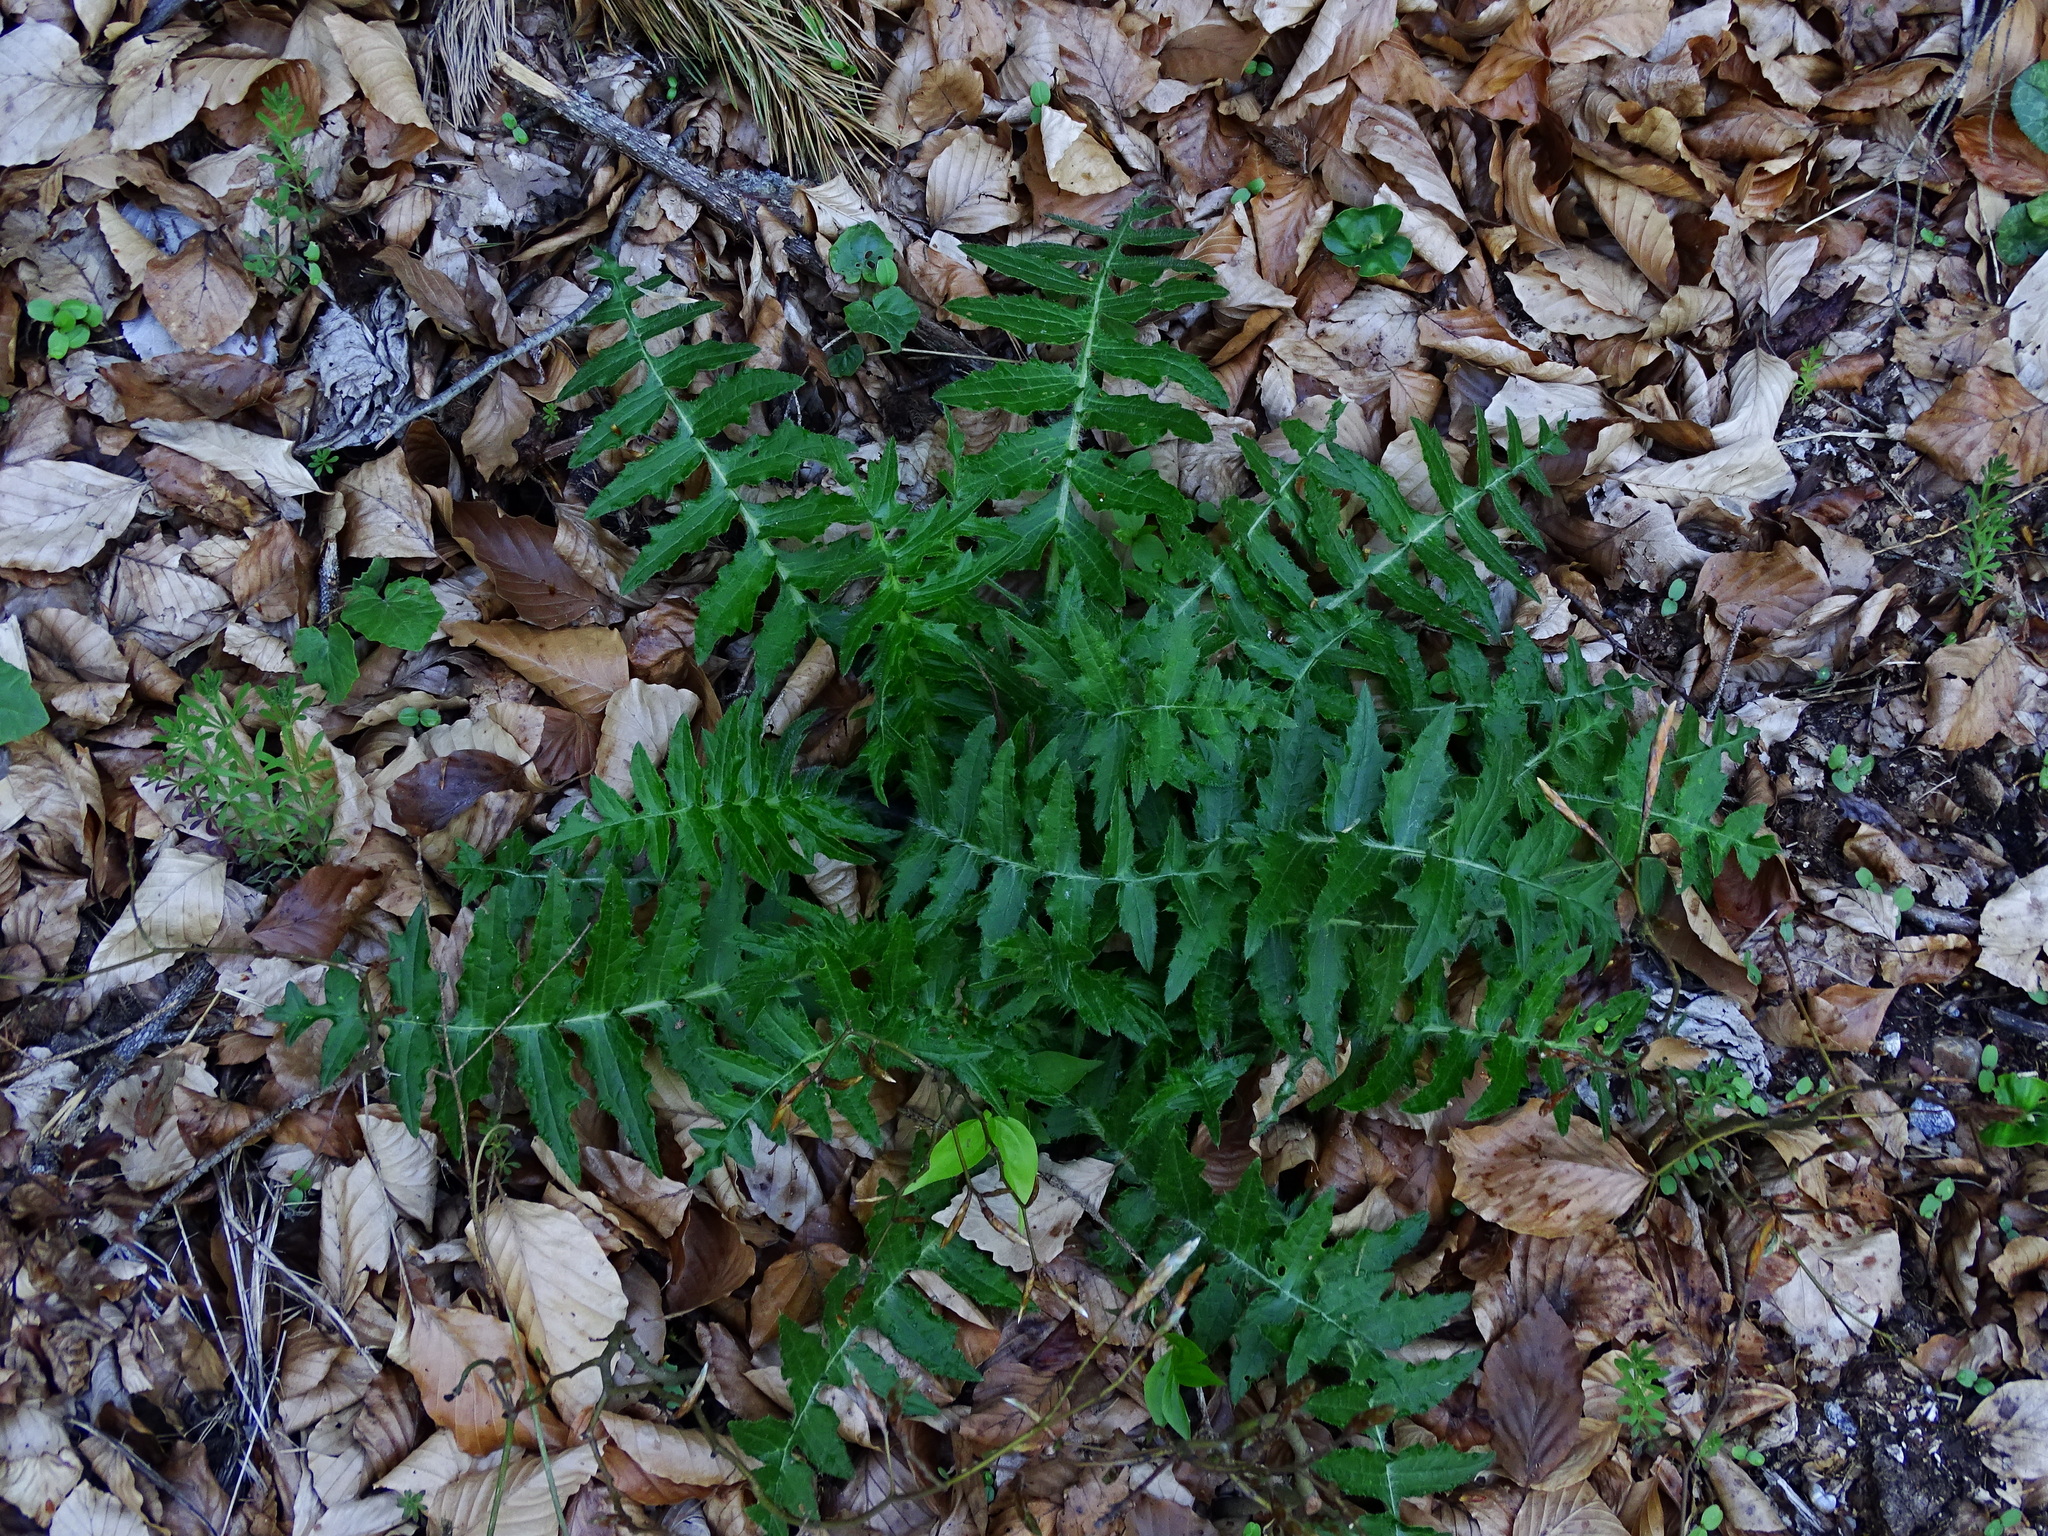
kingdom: Plantae
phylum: Tracheophyta
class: Magnoliopsida
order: Asterales
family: Asteraceae
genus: Cirsium
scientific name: Cirsium erisithales
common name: Yellow thistle
